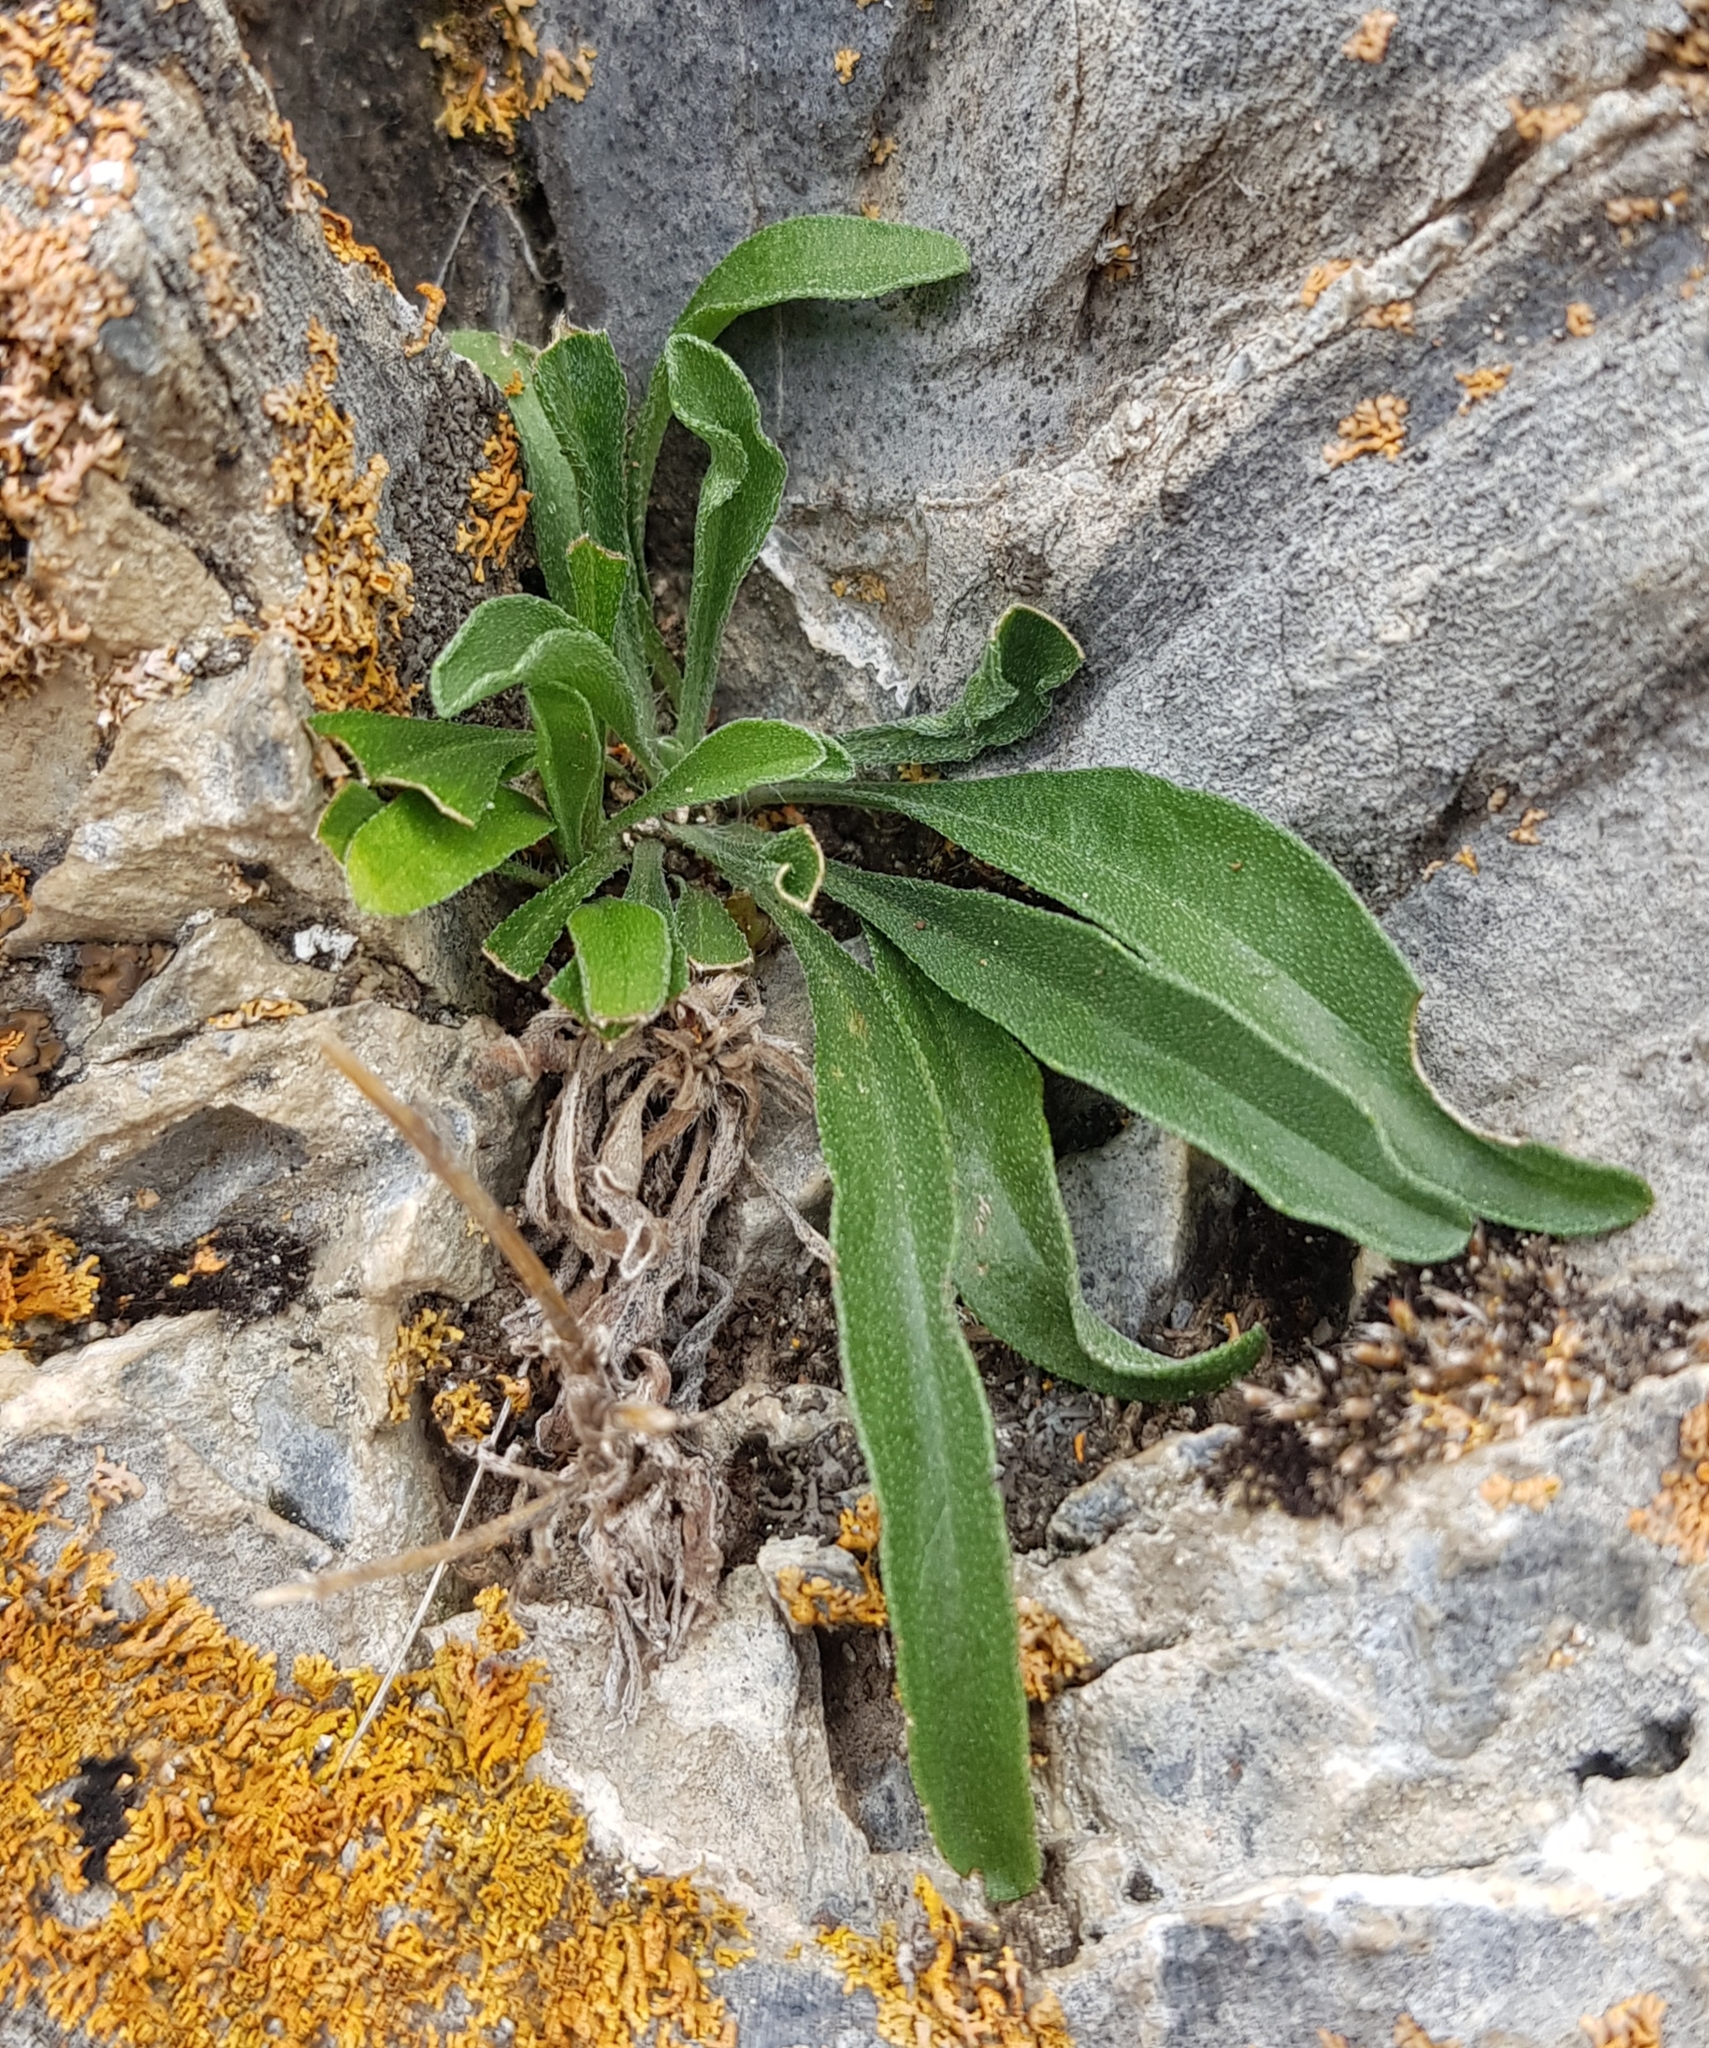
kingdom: Plantae
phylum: Tracheophyta
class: Magnoliopsida
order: Asterales
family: Asteraceae
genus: Aster
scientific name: Aster alpinus
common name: Alpine aster
